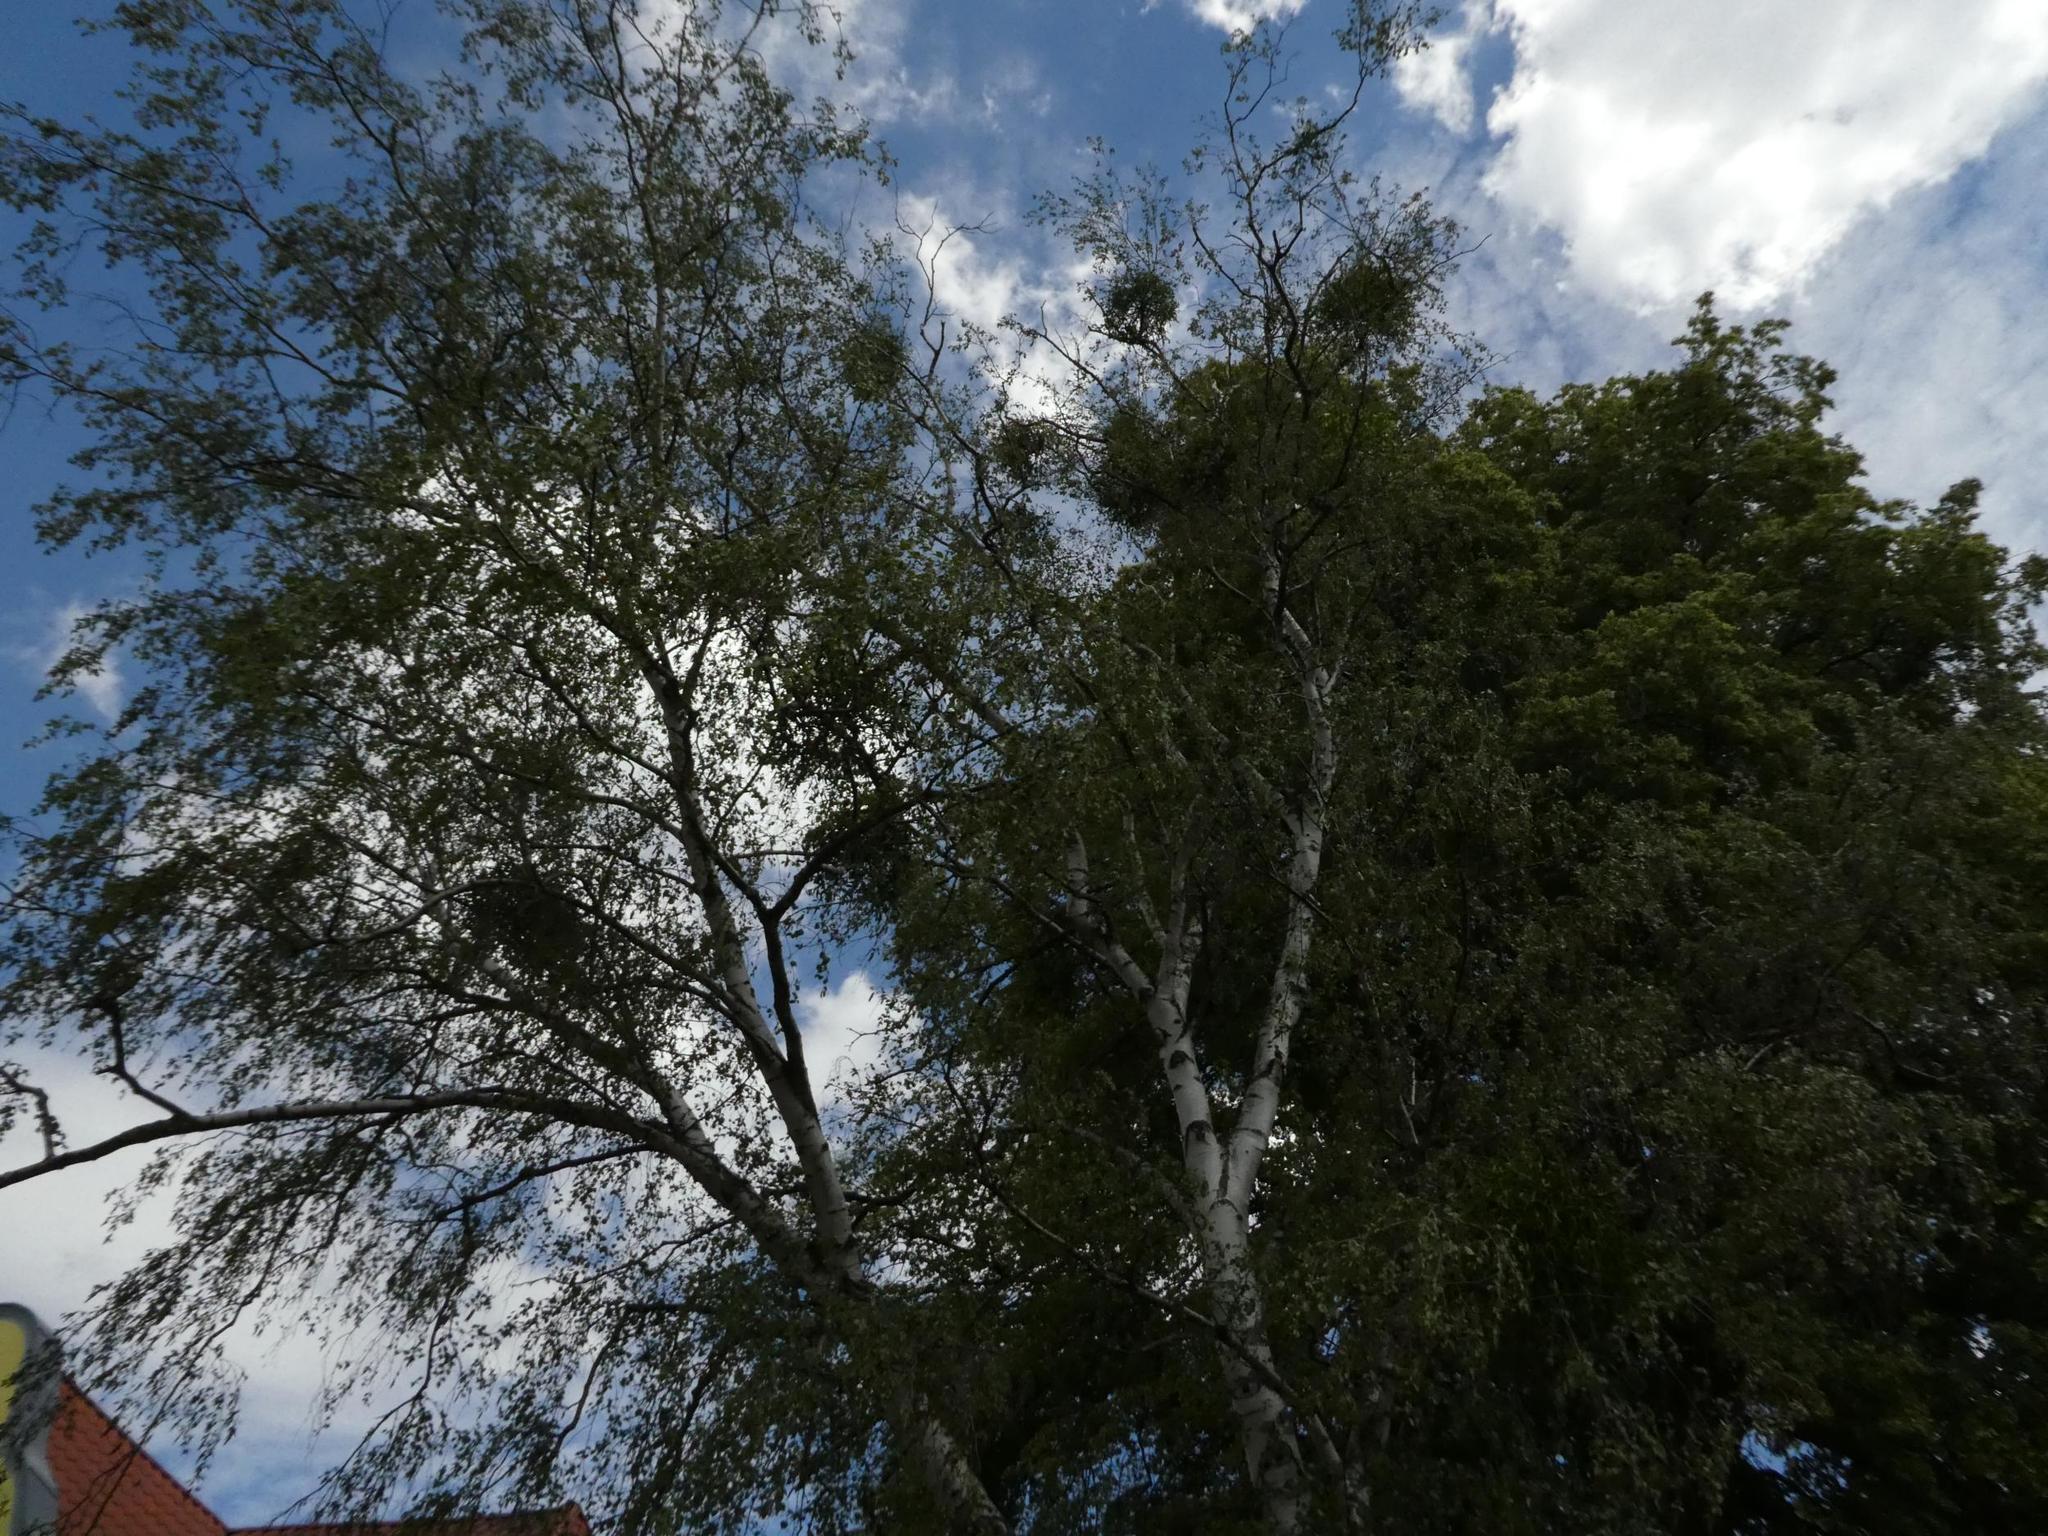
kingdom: Plantae
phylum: Tracheophyta
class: Magnoliopsida
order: Santalales
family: Viscaceae
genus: Viscum
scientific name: Viscum album
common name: Mistletoe
